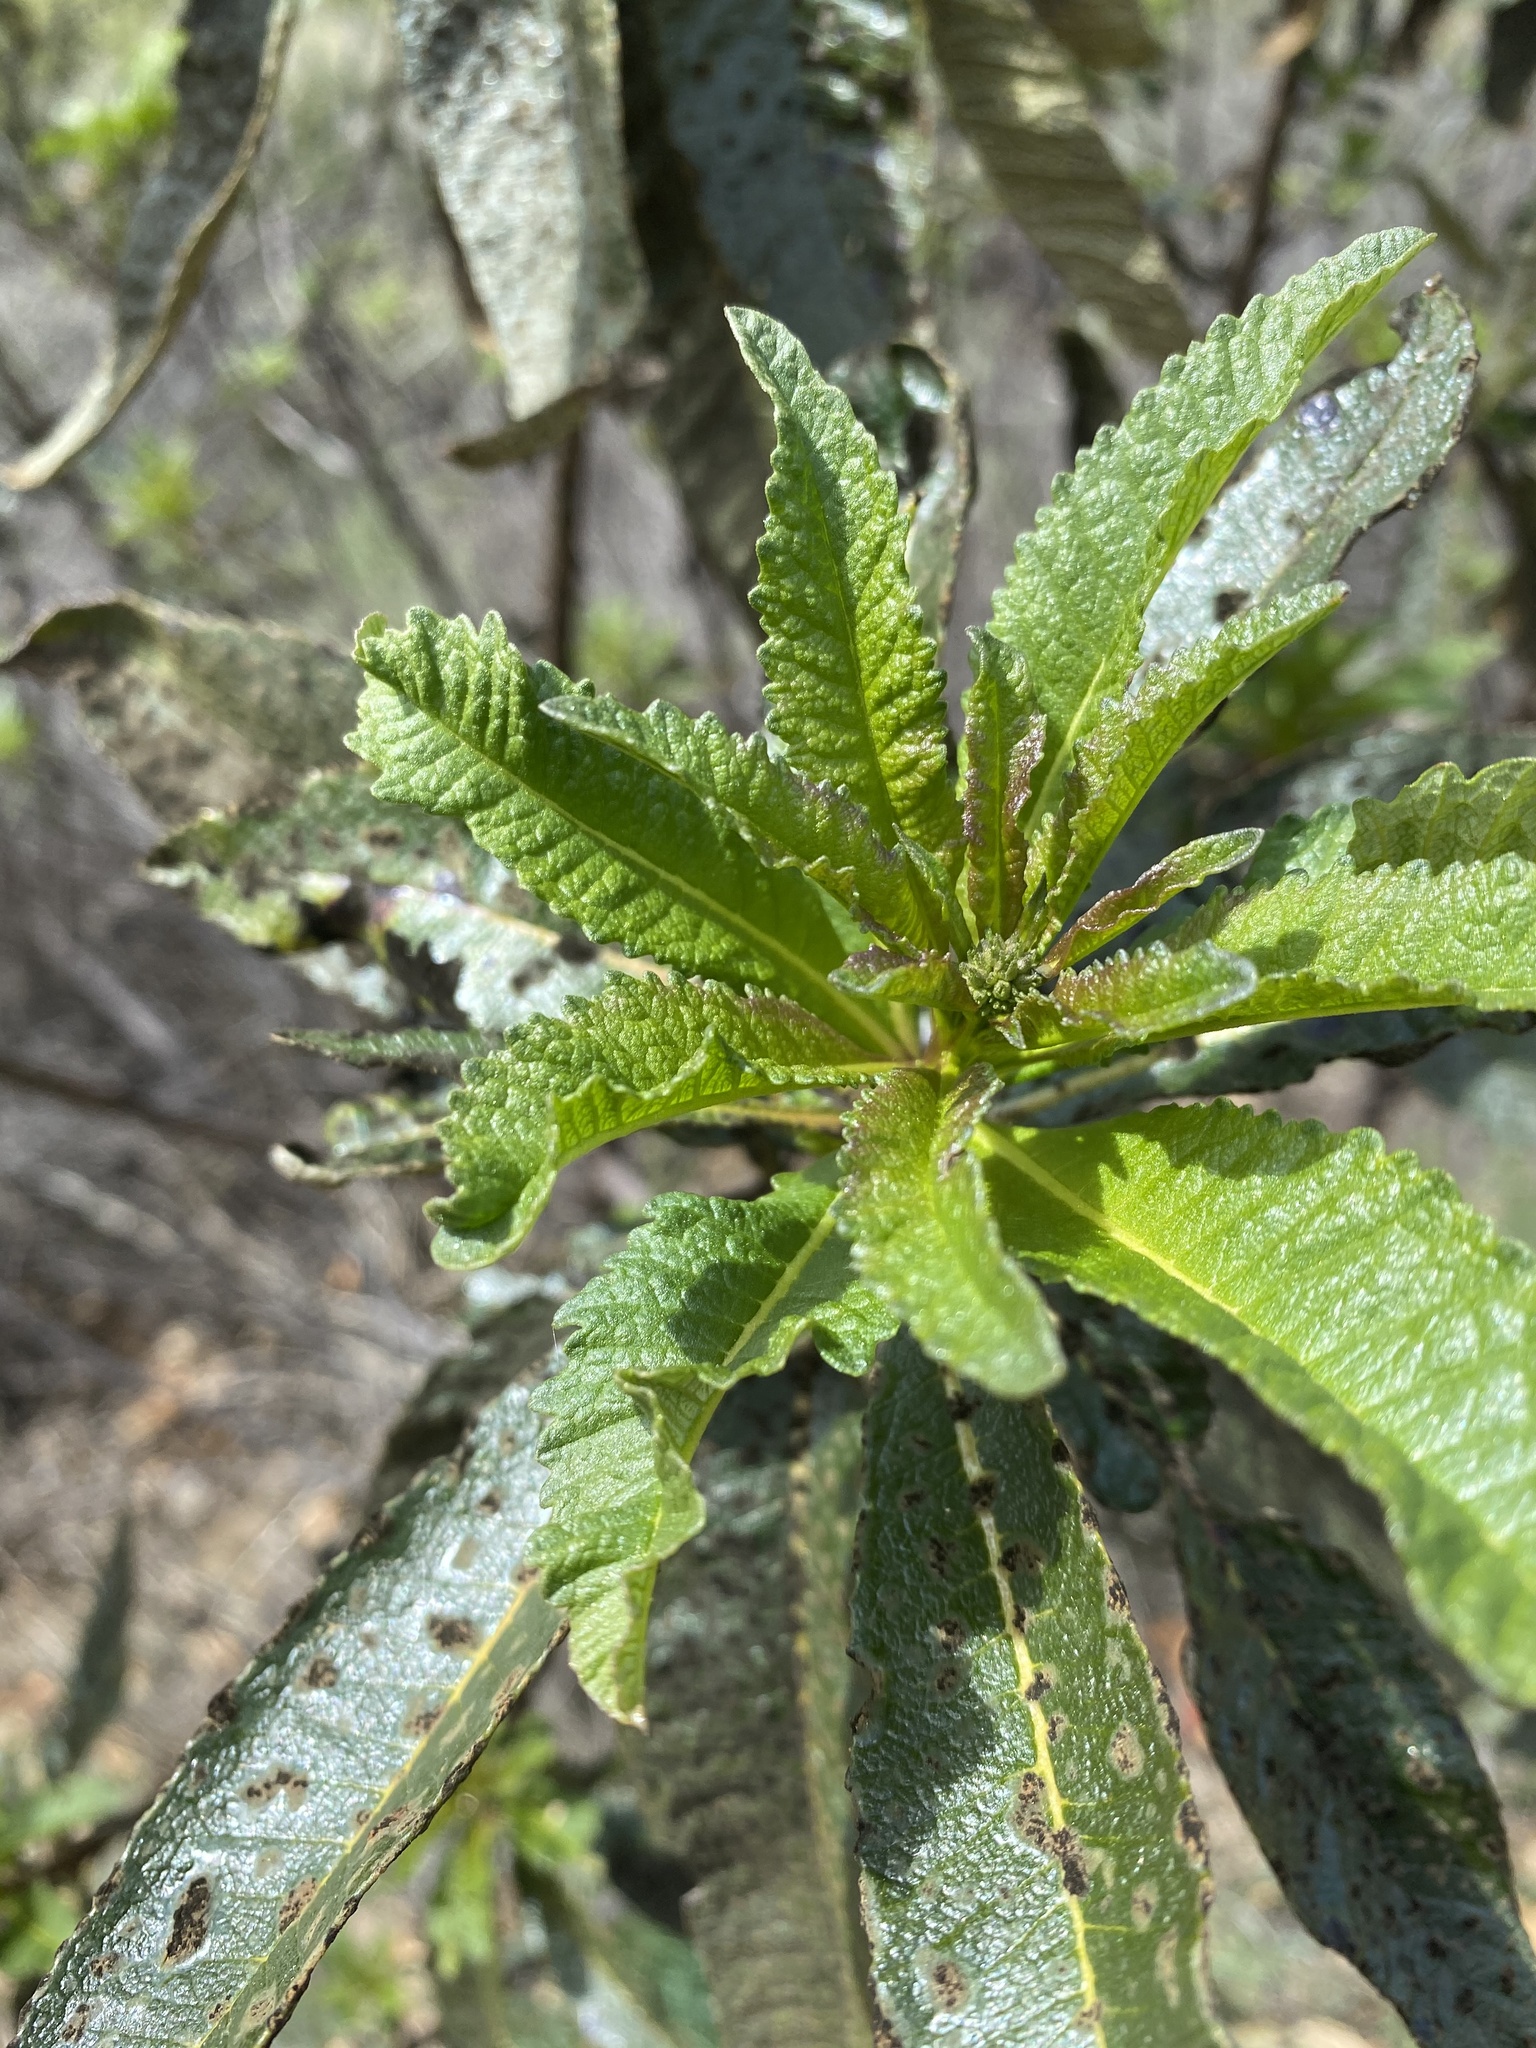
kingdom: Plantae
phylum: Tracheophyta
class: Magnoliopsida
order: Boraginales
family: Namaceae
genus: Eriodictyon
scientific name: Eriodictyon californicum
